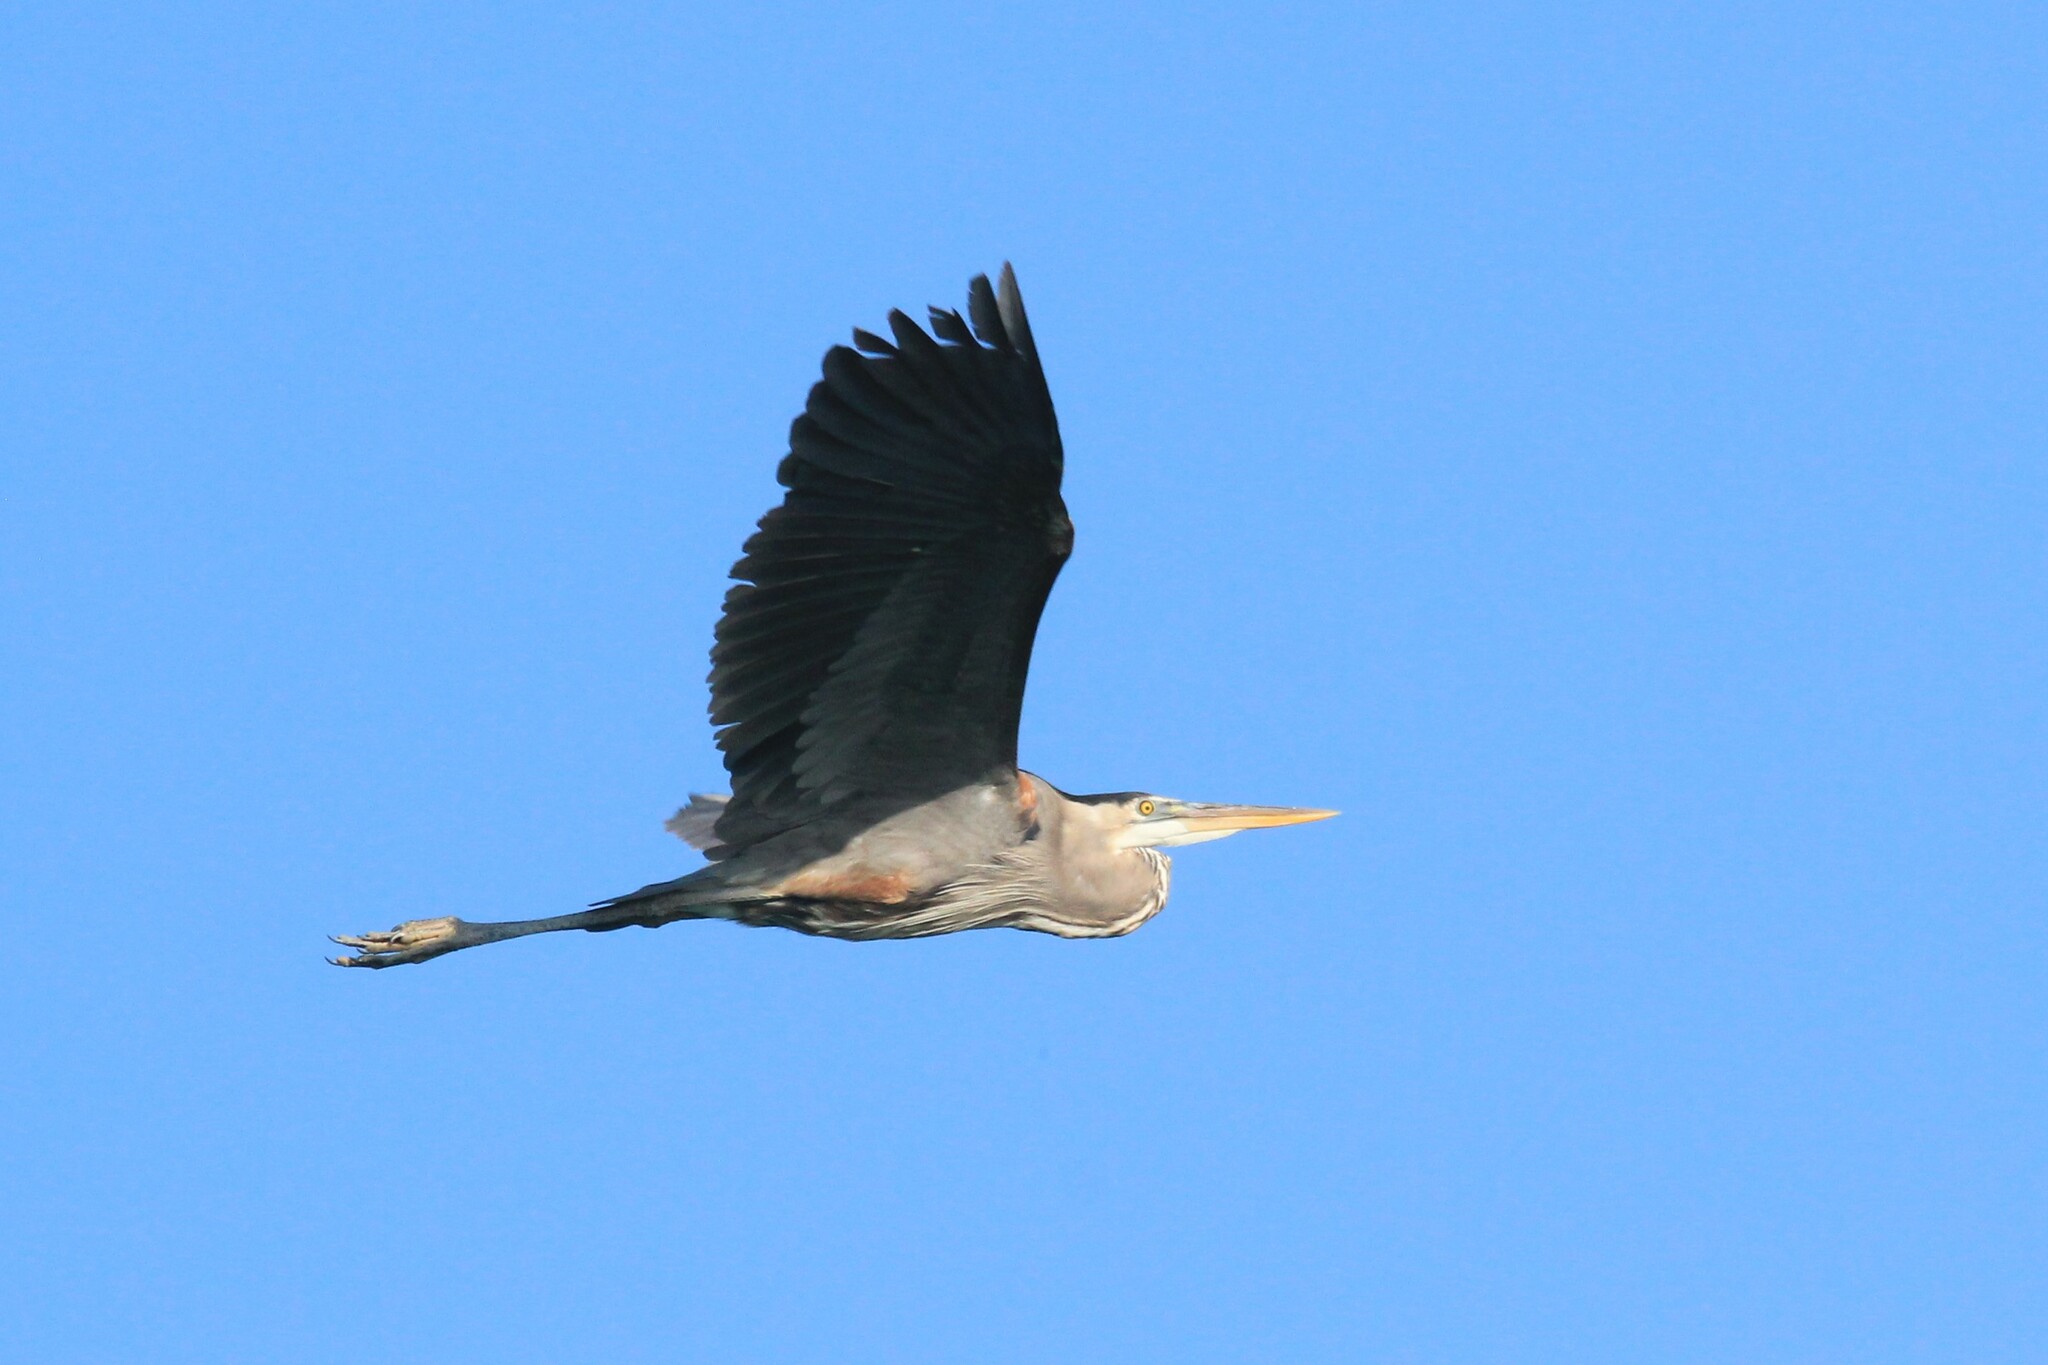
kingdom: Animalia
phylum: Chordata
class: Aves
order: Pelecaniformes
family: Ardeidae
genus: Ardea
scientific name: Ardea herodias
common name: Great blue heron
